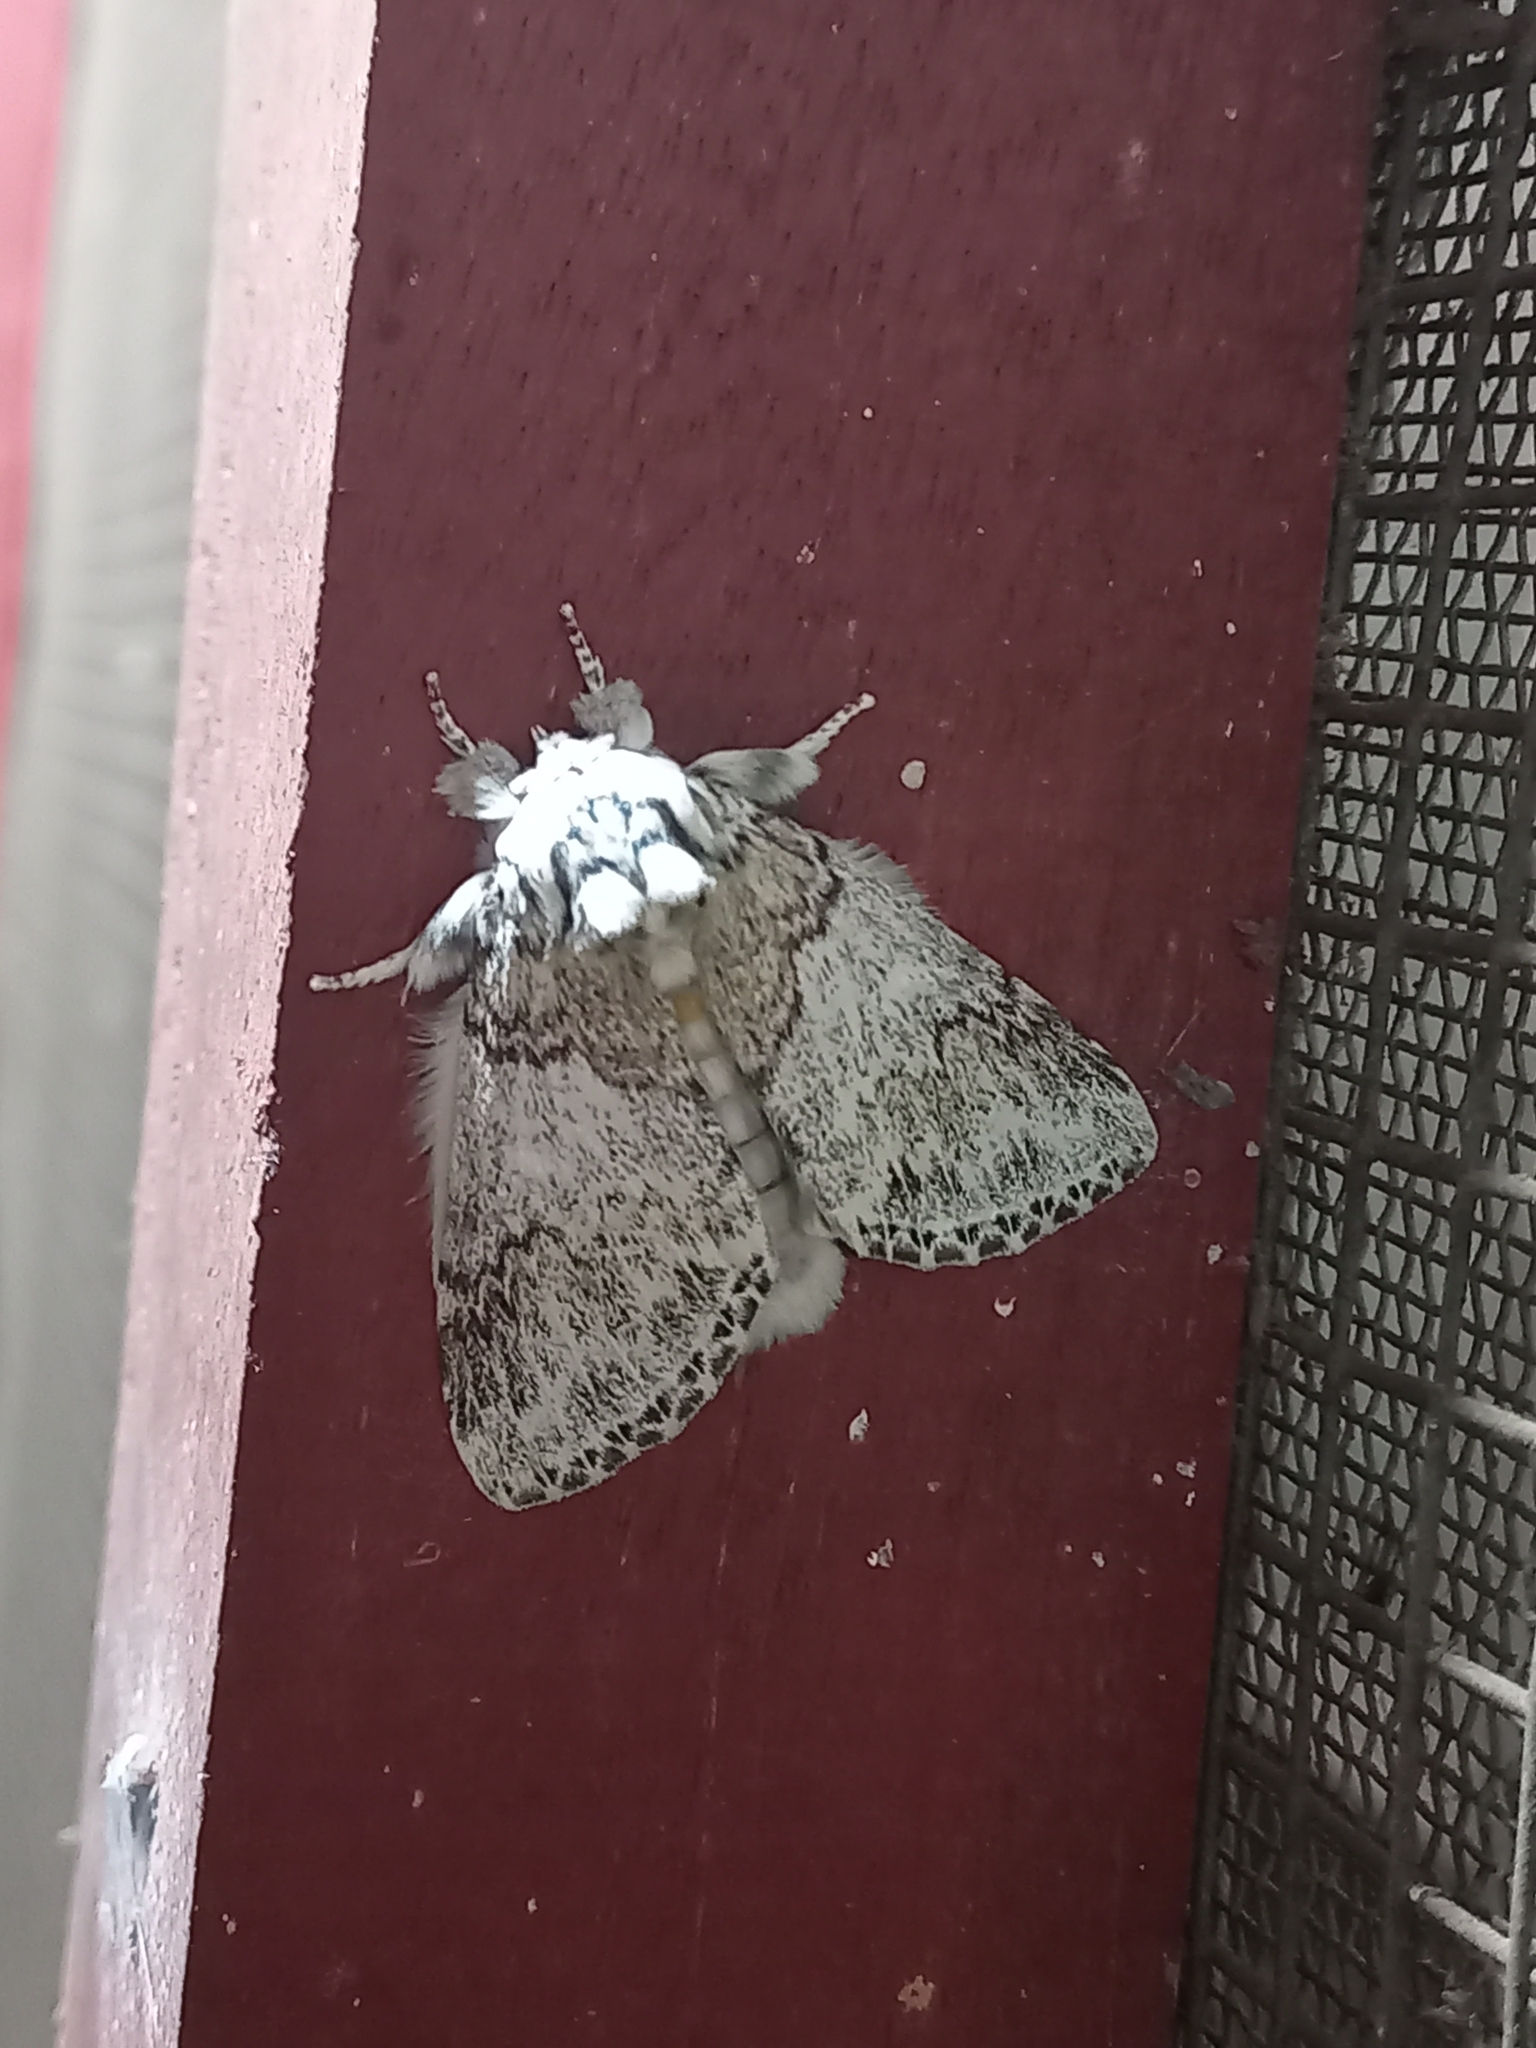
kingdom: Animalia
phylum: Arthropoda
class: Insecta
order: Lepidoptera
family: Notodontidae
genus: Boleza
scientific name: Boleza
